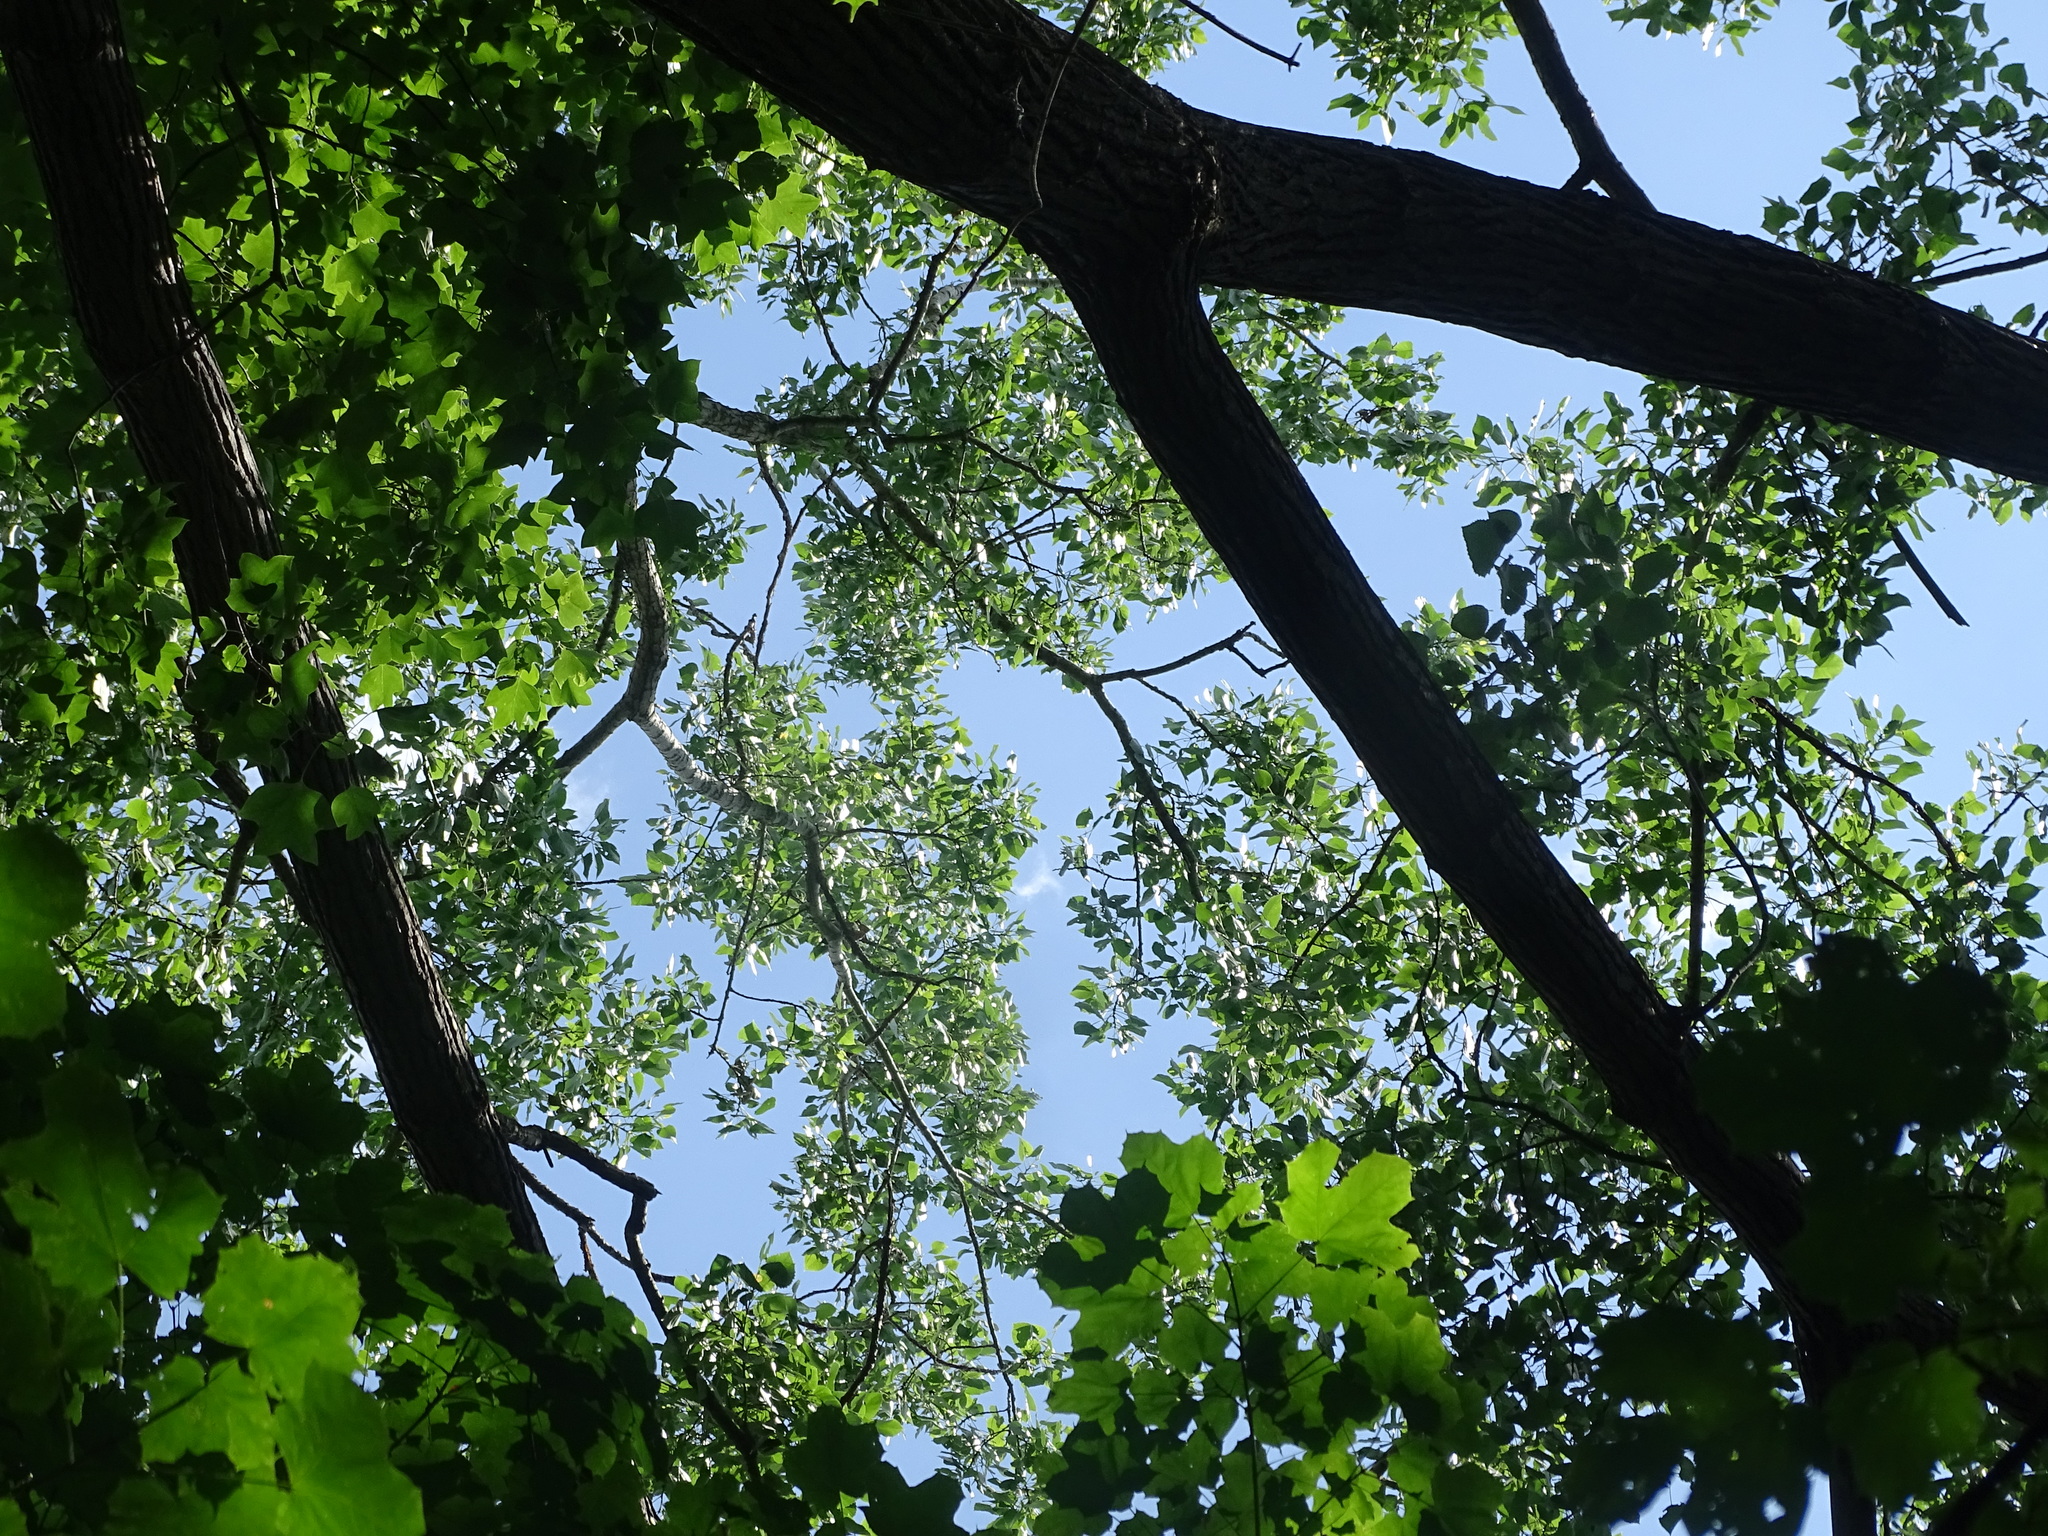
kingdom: Plantae
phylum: Tracheophyta
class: Magnoliopsida
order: Malpighiales
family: Salicaceae
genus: Populus
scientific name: Populus deltoides
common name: Eastern cottonwood
